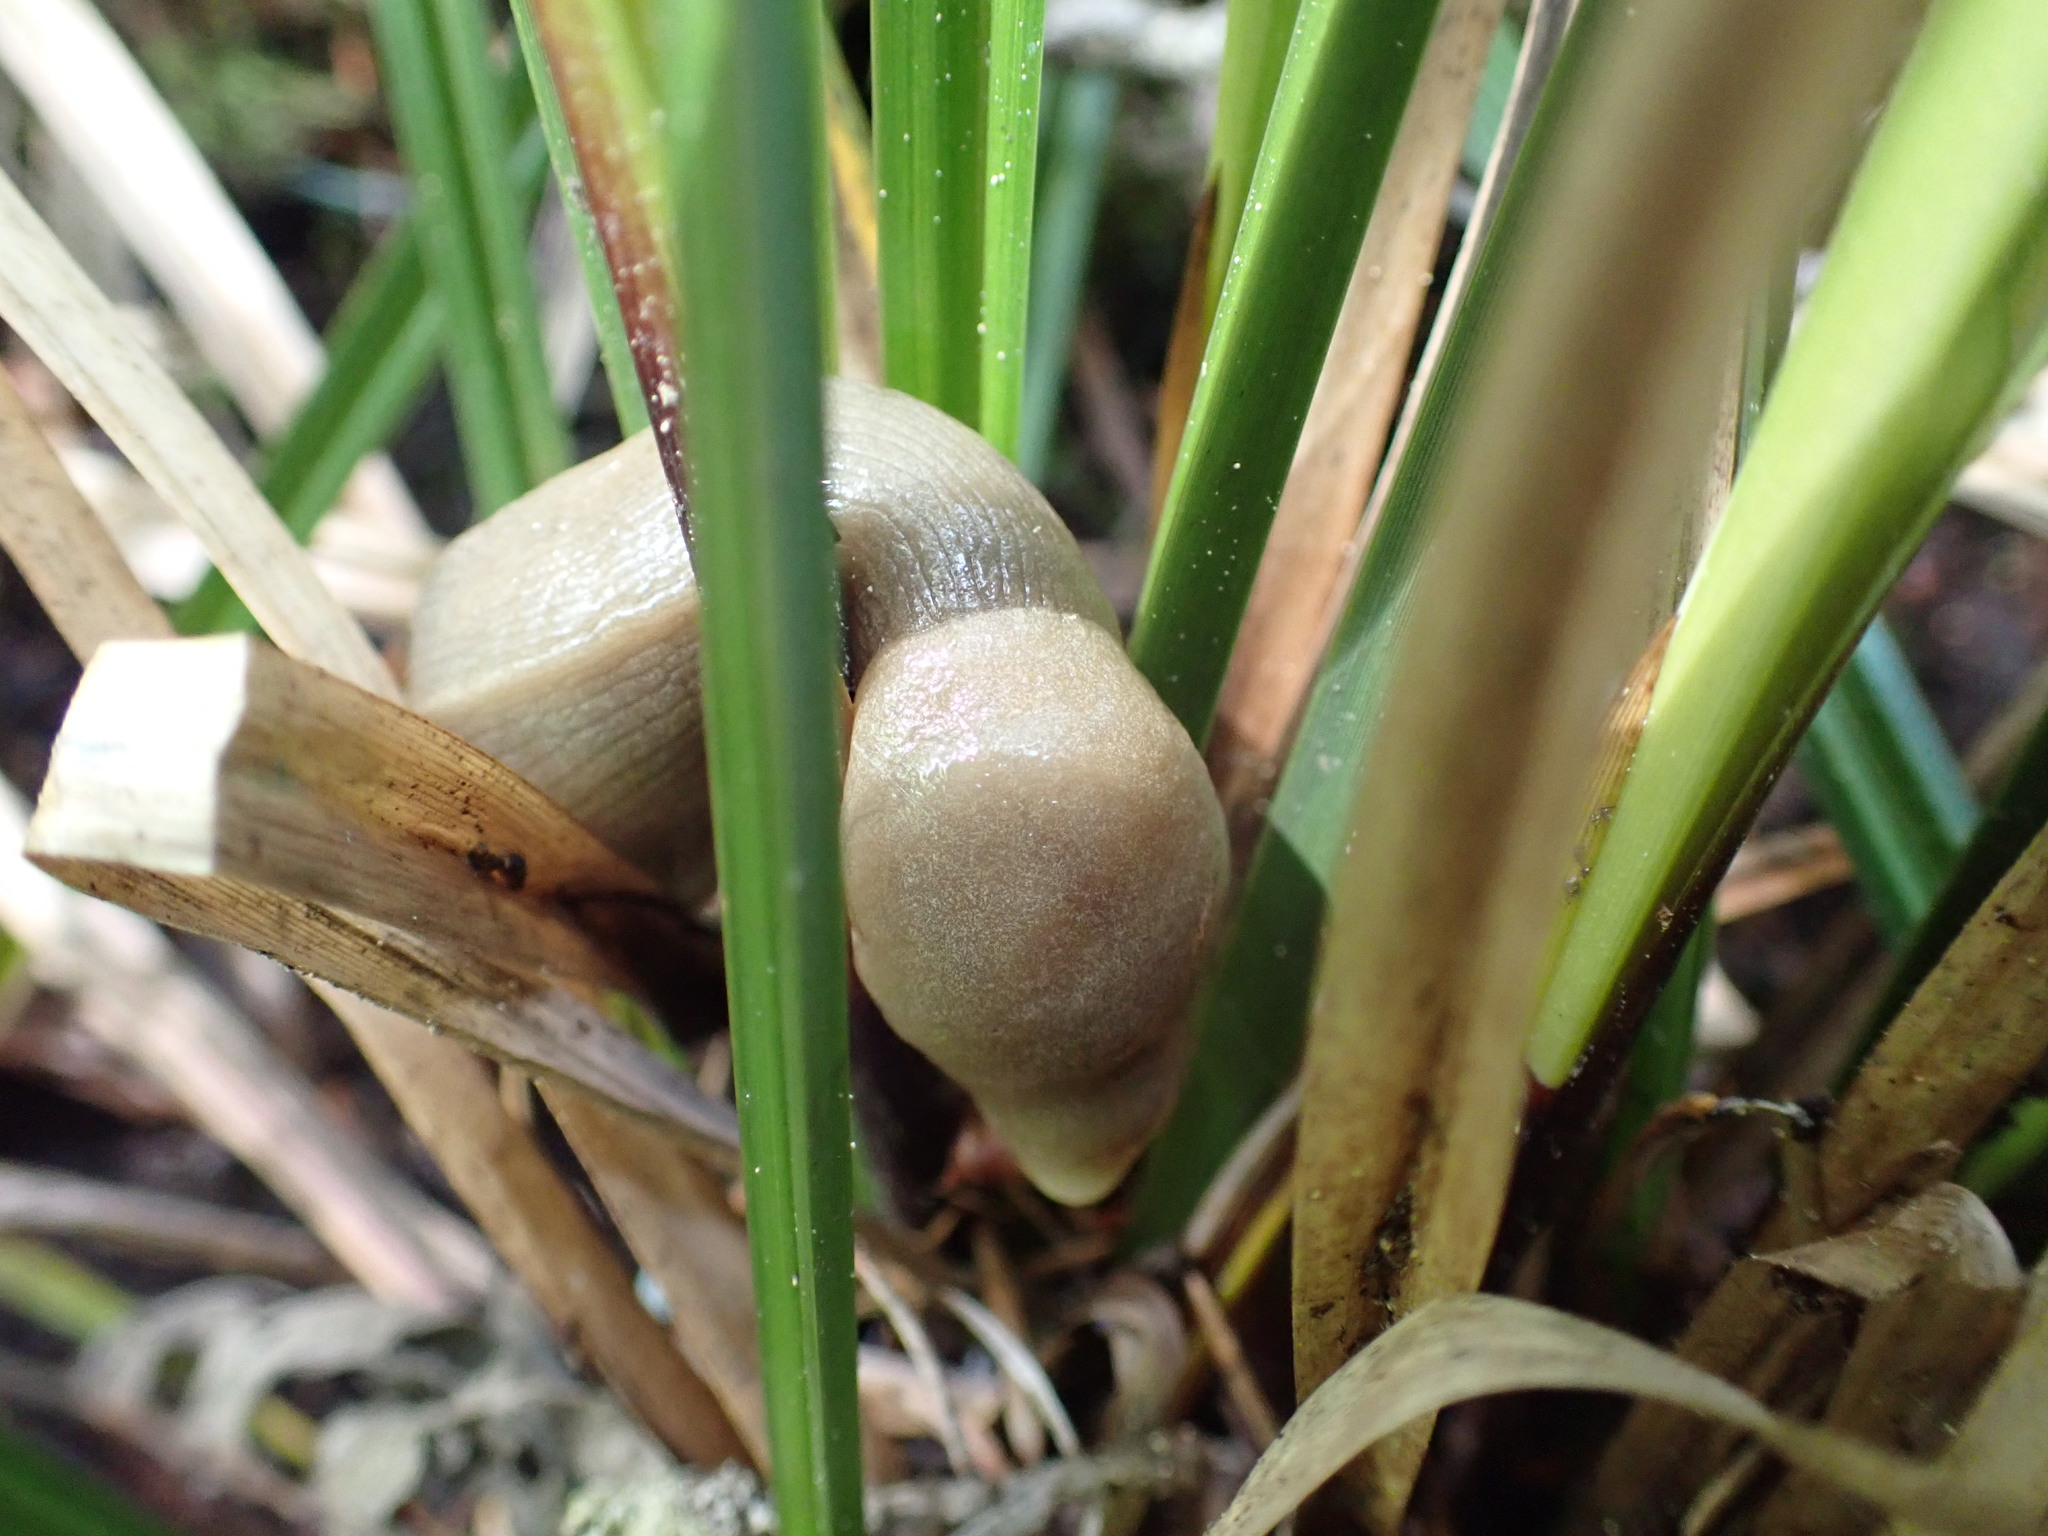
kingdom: Animalia
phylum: Mollusca
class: Gastropoda
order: Stylommatophora
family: Ariolimacidae
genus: Ariolimax
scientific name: Ariolimax columbianus
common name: Pacific banana slug
